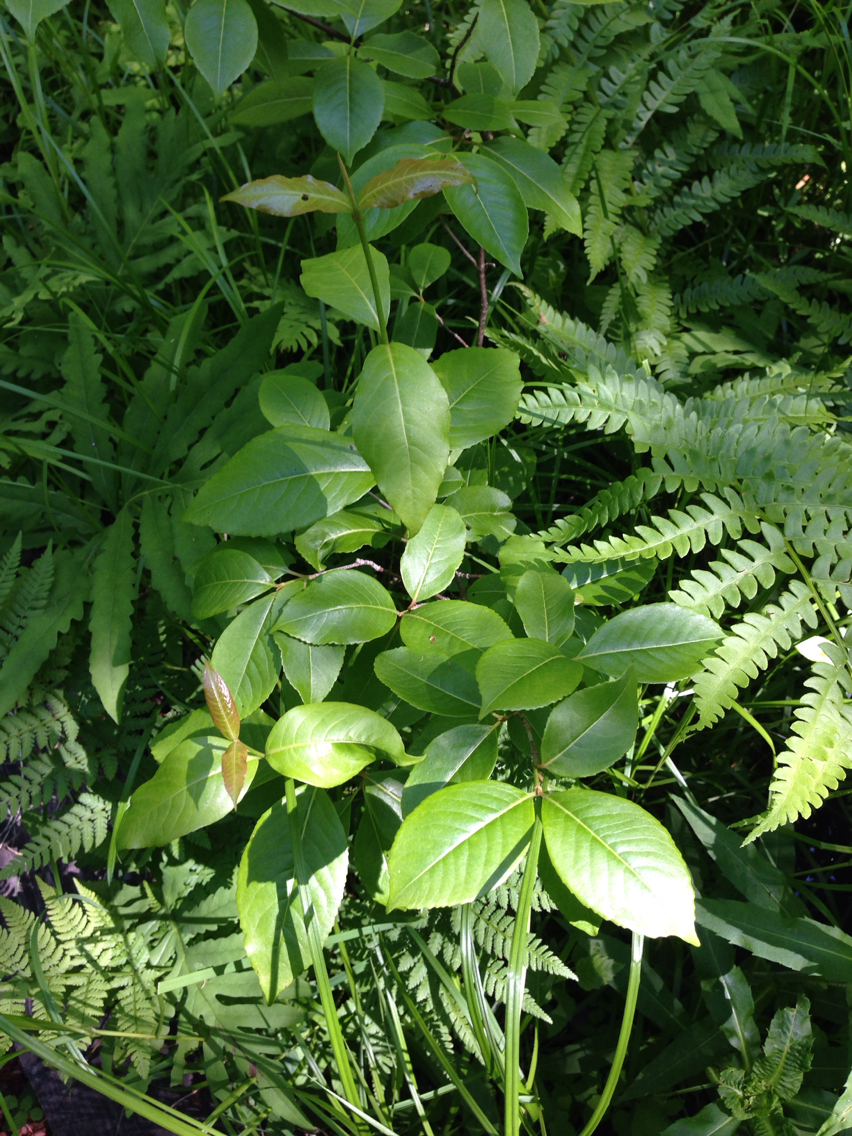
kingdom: Plantae
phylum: Tracheophyta
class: Magnoliopsida
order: Dipsacales
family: Viburnaceae
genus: Viburnum
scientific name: Viburnum cassinoides
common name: Swamp haw
